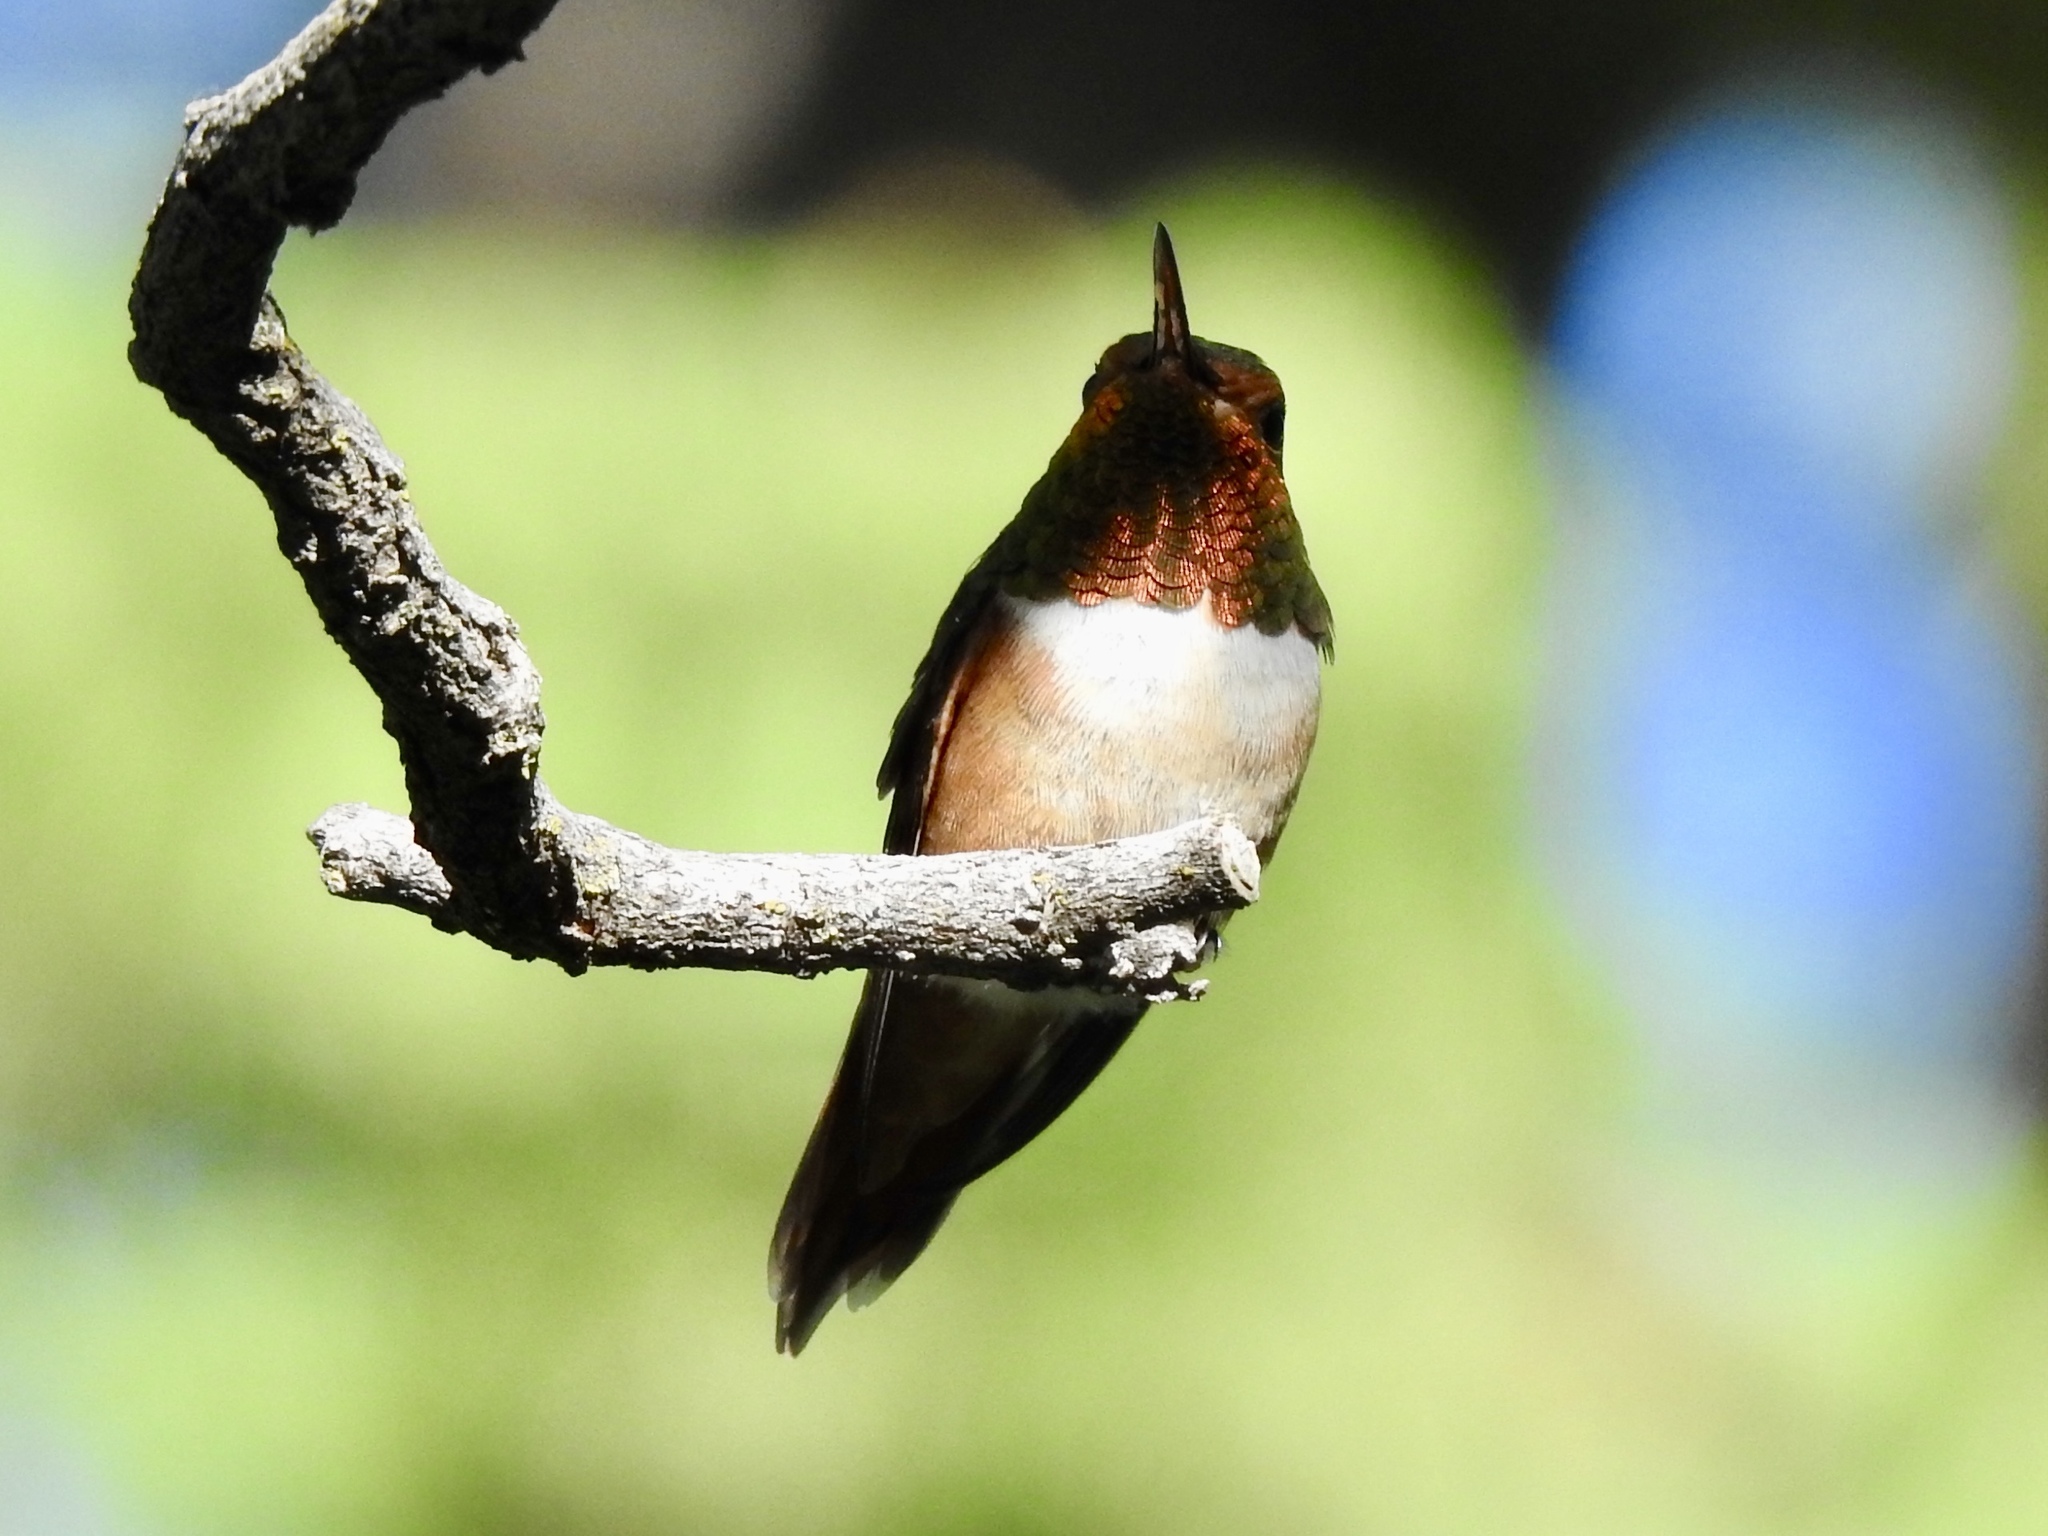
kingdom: Animalia
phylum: Chordata
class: Aves
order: Apodiformes
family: Trochilidae
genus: Selasphorus
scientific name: Selasphorus rufus
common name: Rufous hummingbird
